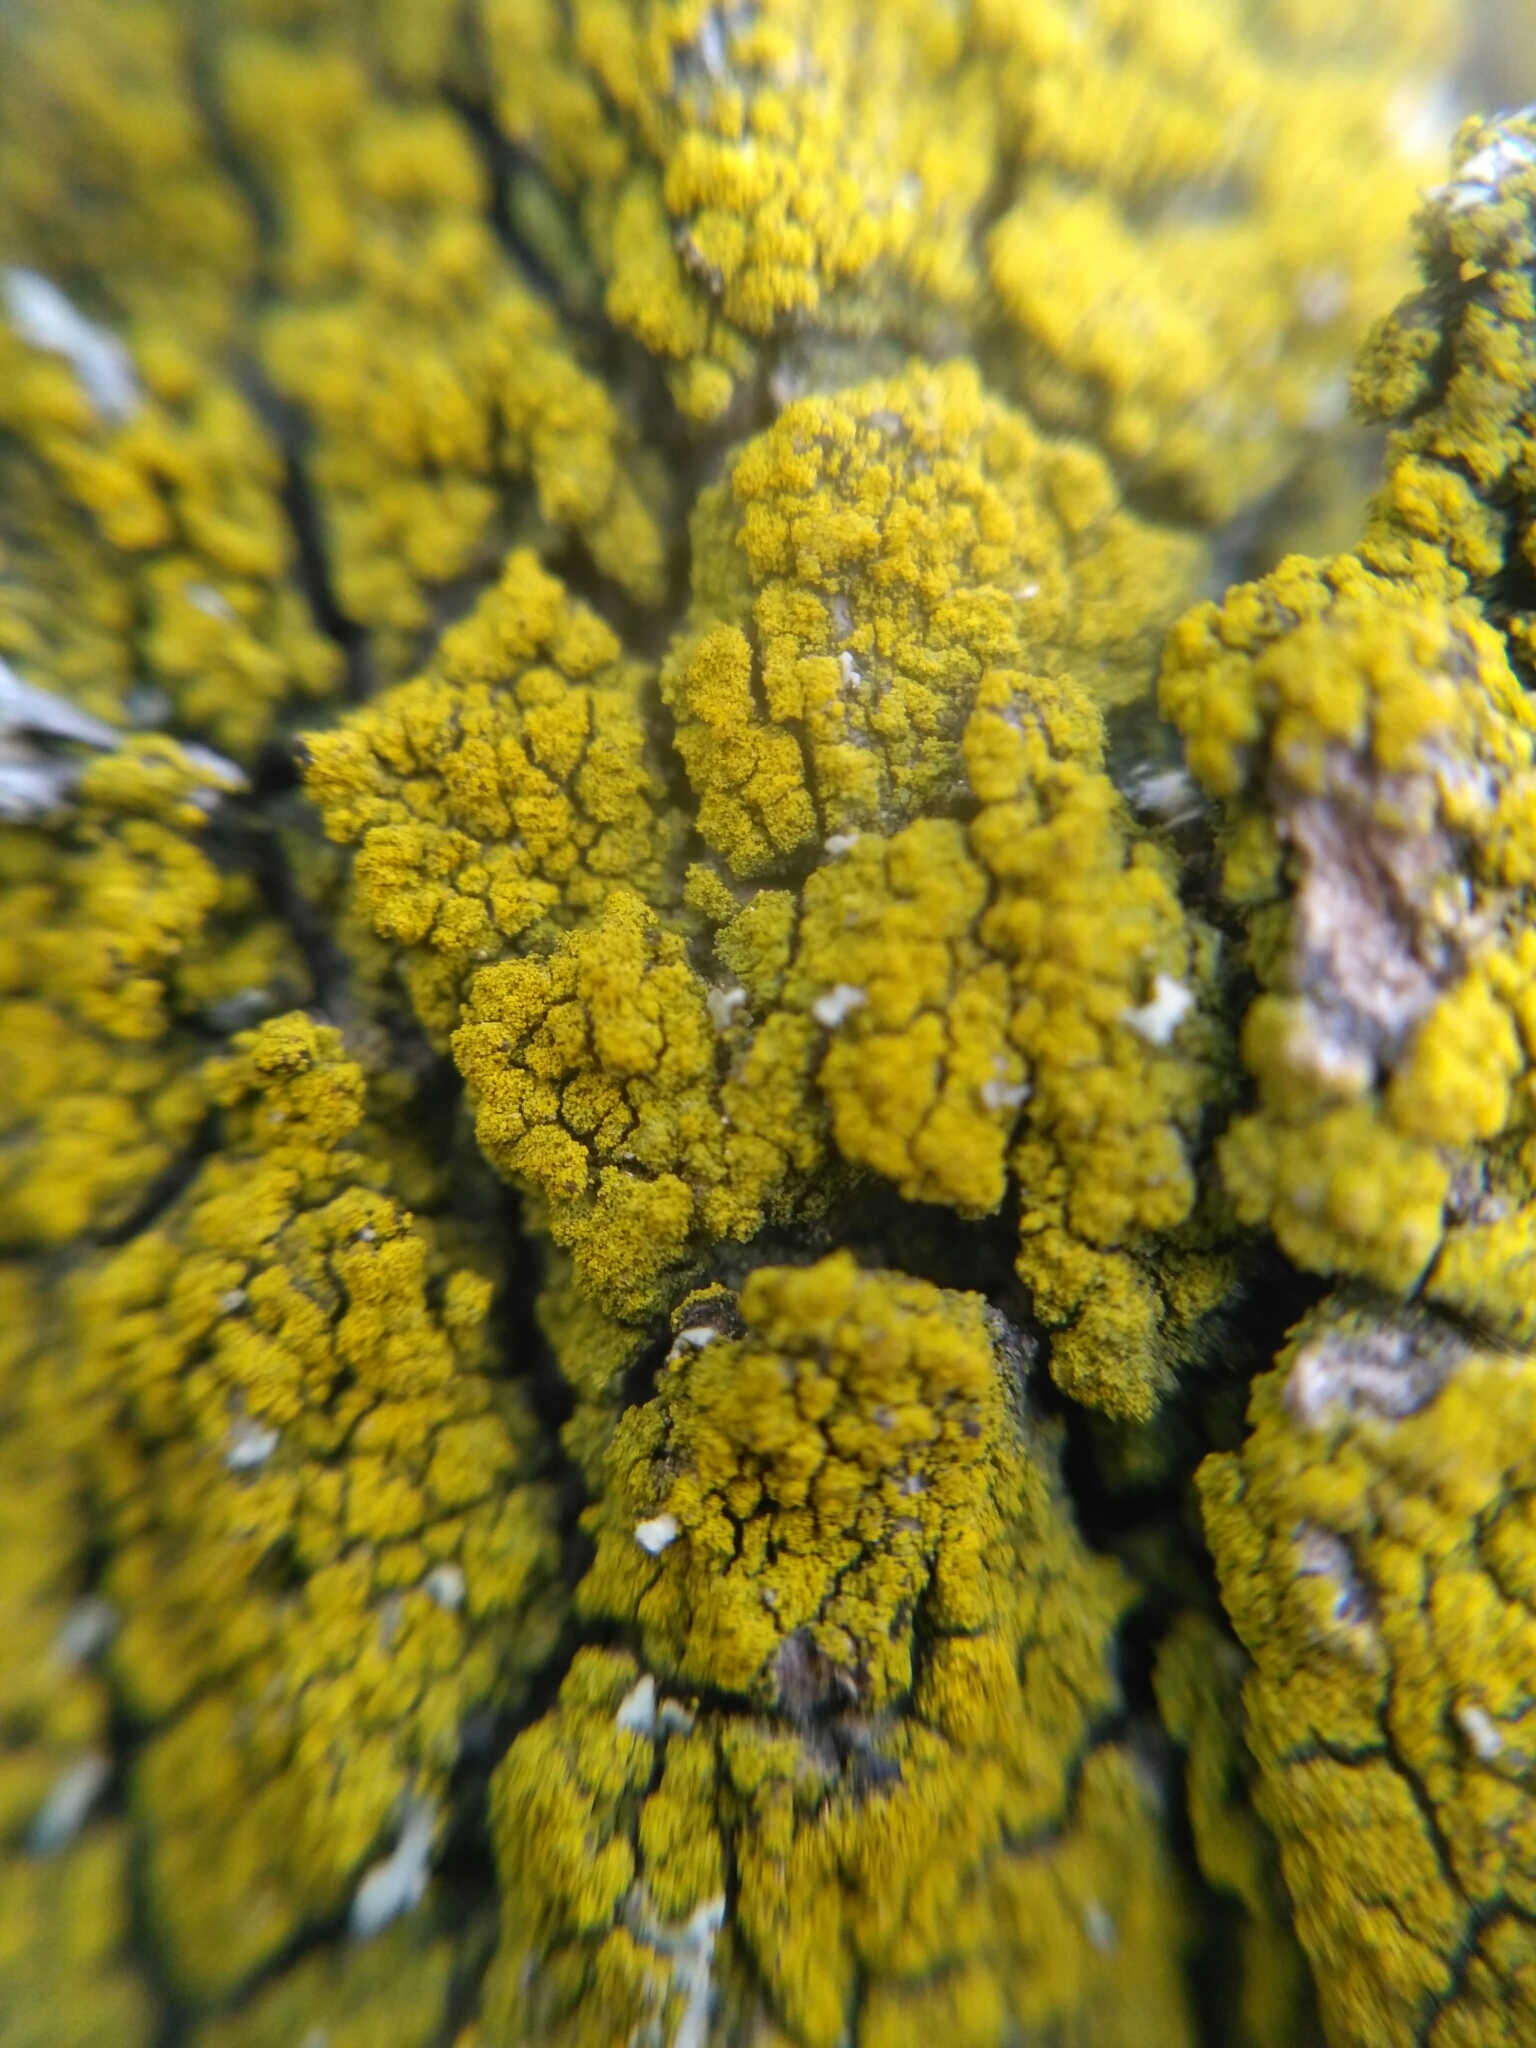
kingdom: Fungi
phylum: Ascomycota
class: Candelariomycetes
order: Candelariales
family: Candelariaceae
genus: Candelariella
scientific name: Candelariella efflorescens
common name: Powdery goldspeck
